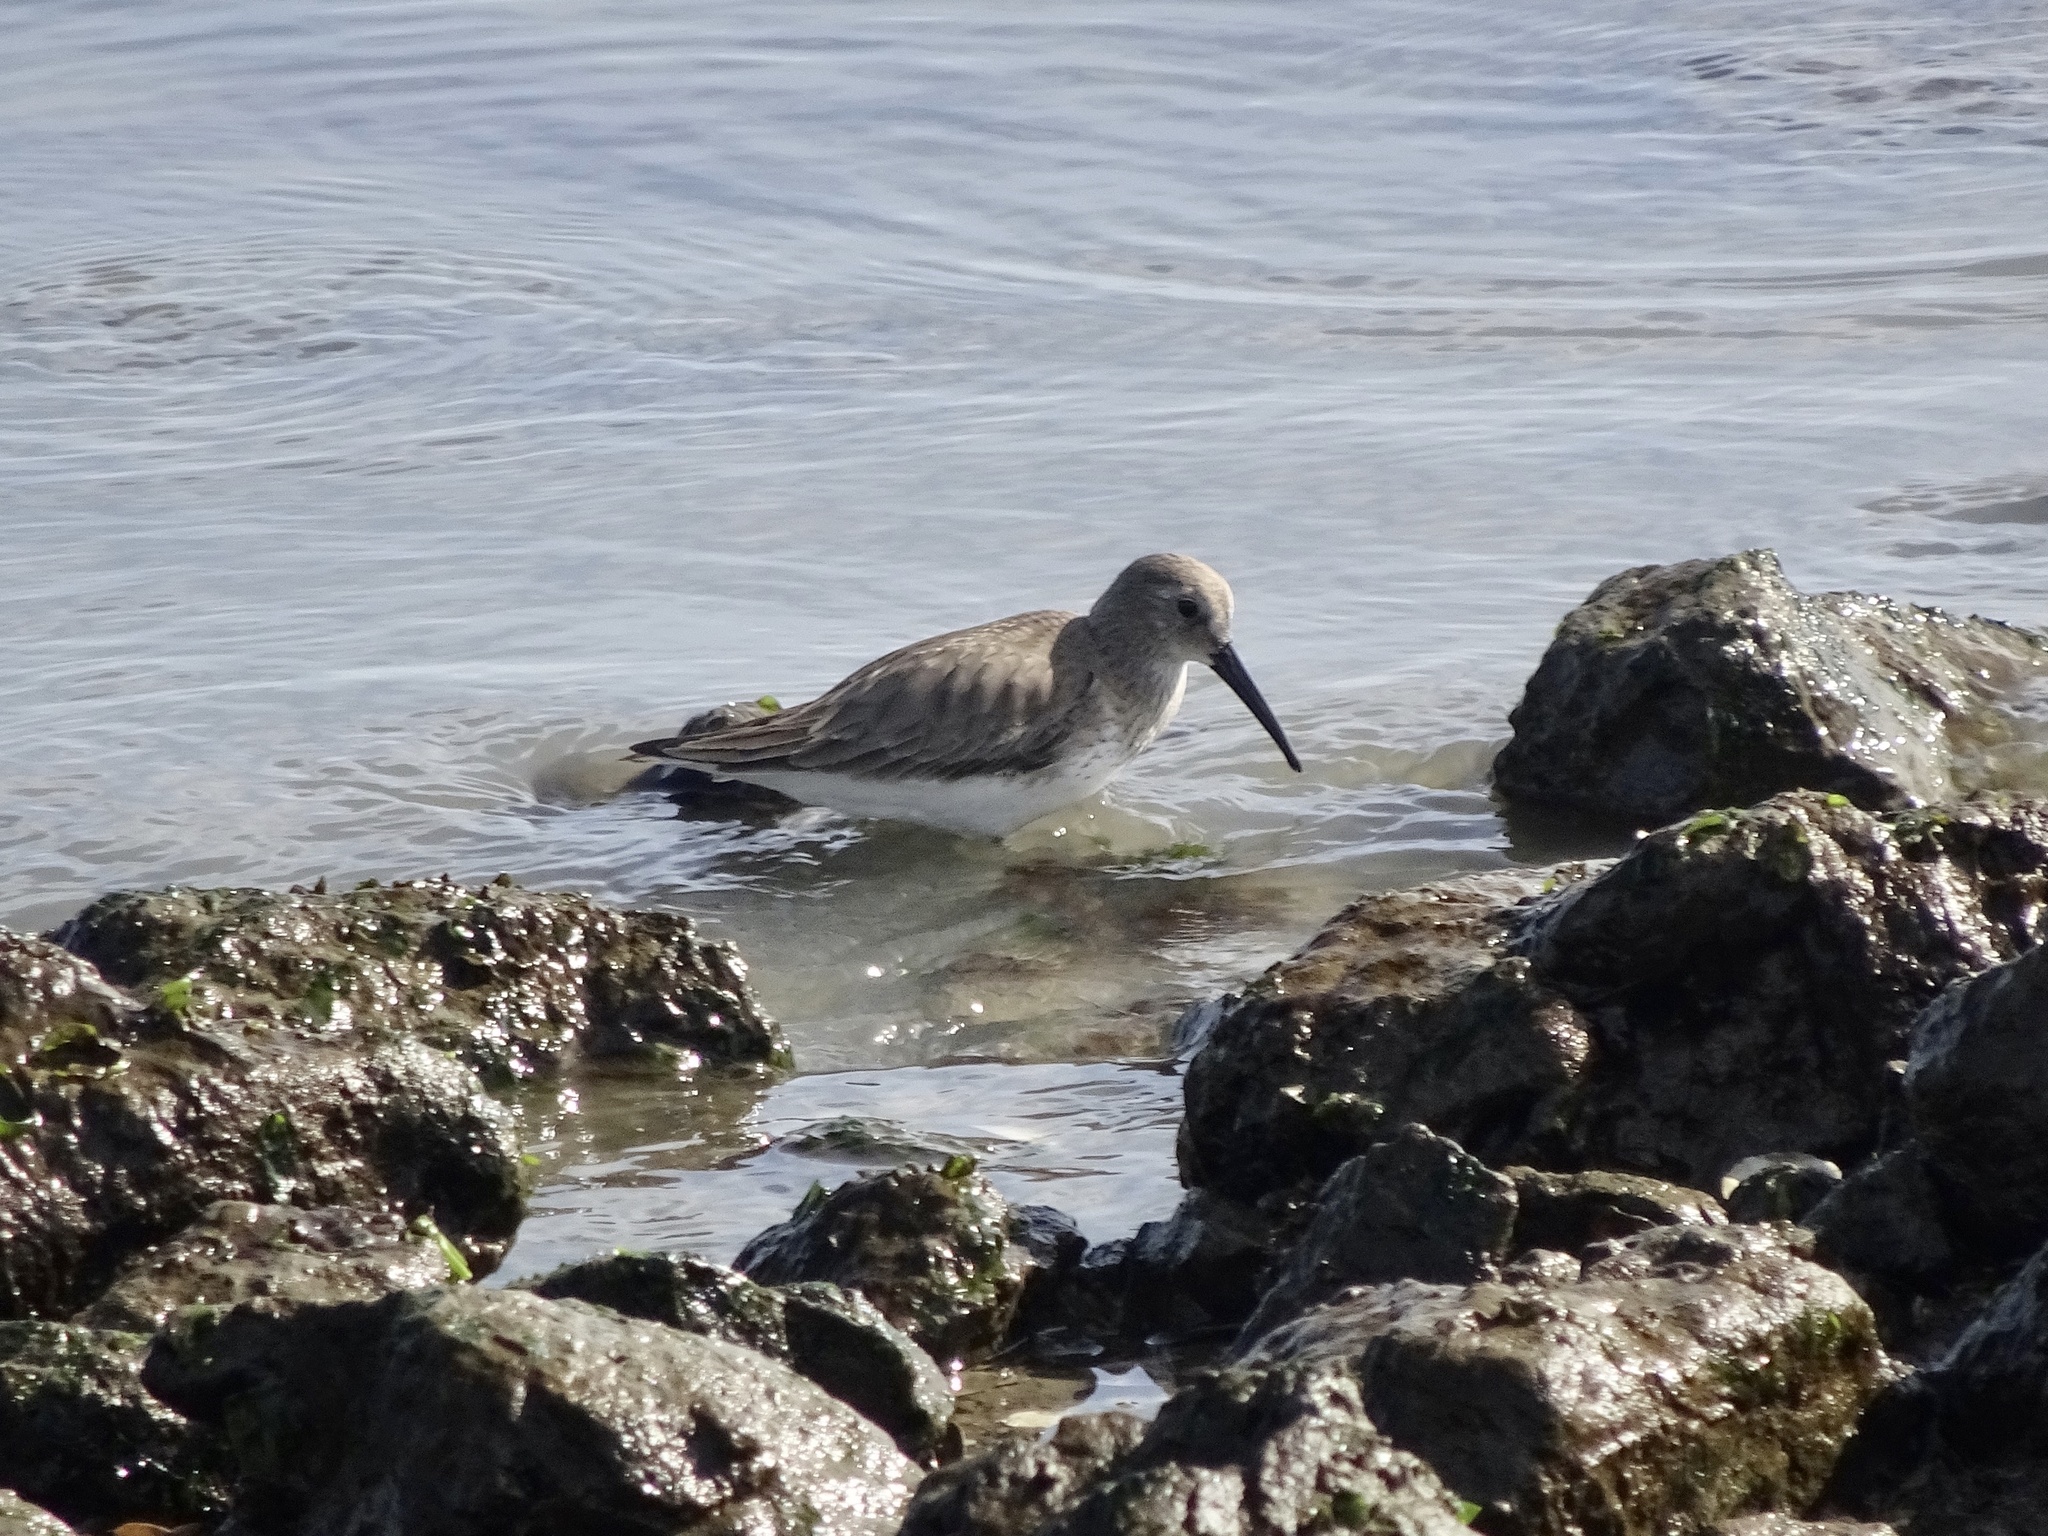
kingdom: Animalia
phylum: Chordata
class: Aves
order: Charadriiformes
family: Scolopacidae
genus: Calidris
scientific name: Calidris alpina
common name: Dunlin
